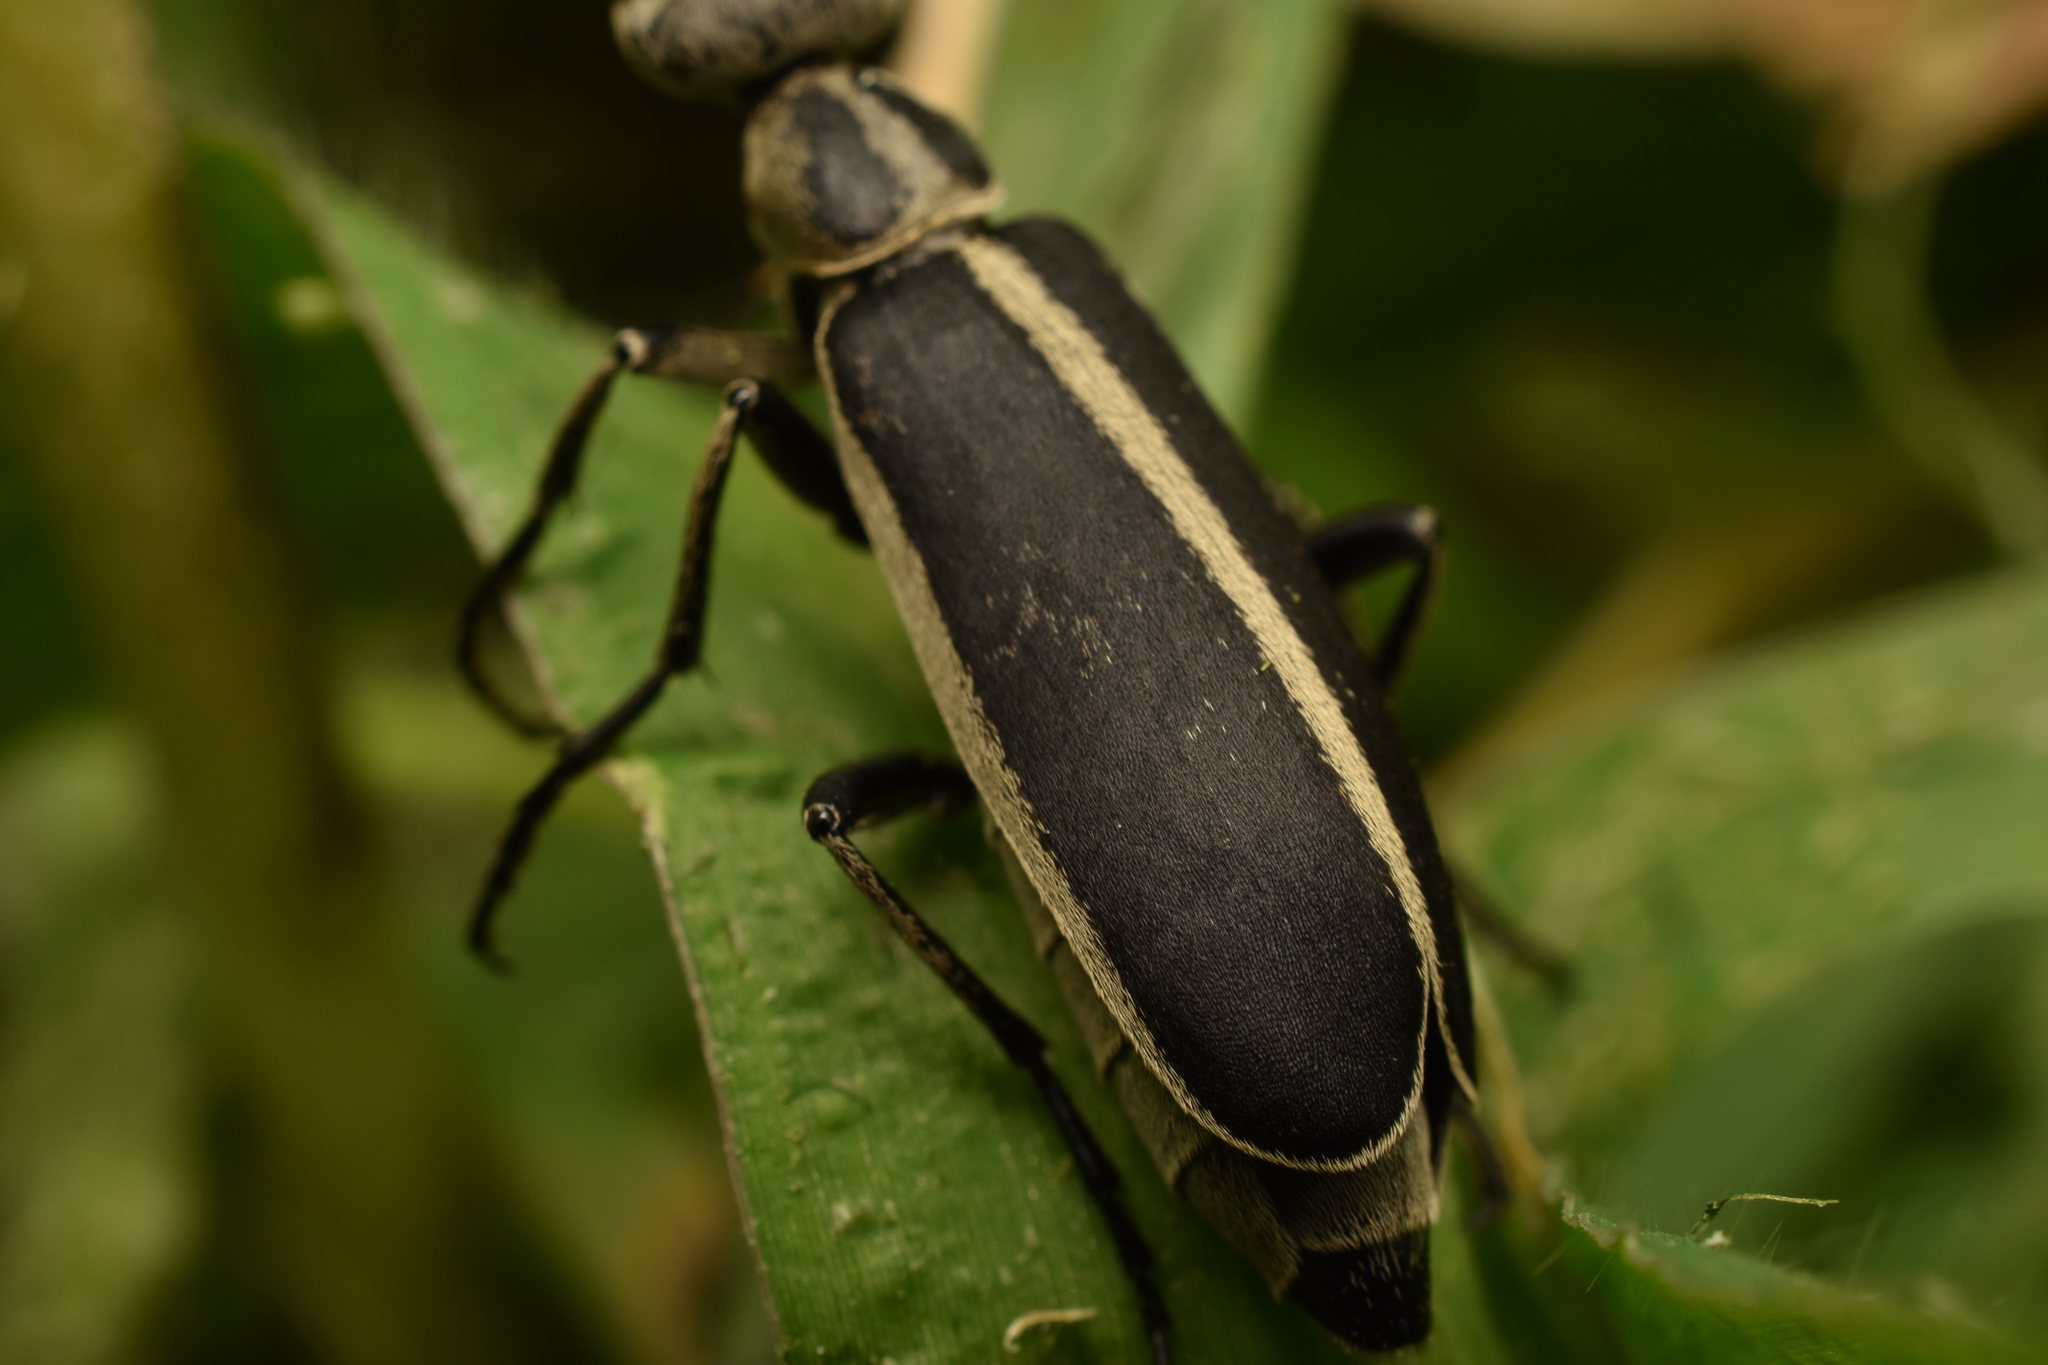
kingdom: Animalia
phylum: Arthropoda
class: Insecta
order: Coleoptera
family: Meloidae
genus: Epicauta
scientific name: Epicauta funebris
